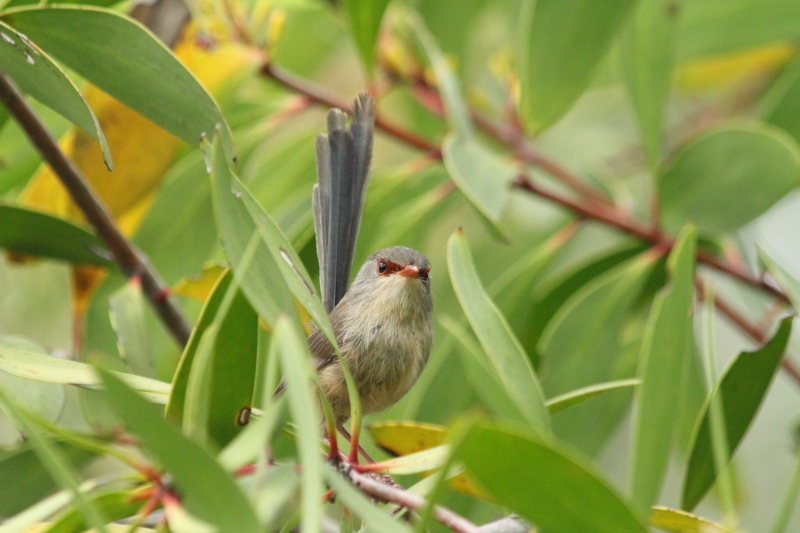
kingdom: Animalia
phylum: Chordata
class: Aves
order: Passeriformes
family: Maluridae
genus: Malurus
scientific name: Malurus lamberti
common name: Variegated fairywren
